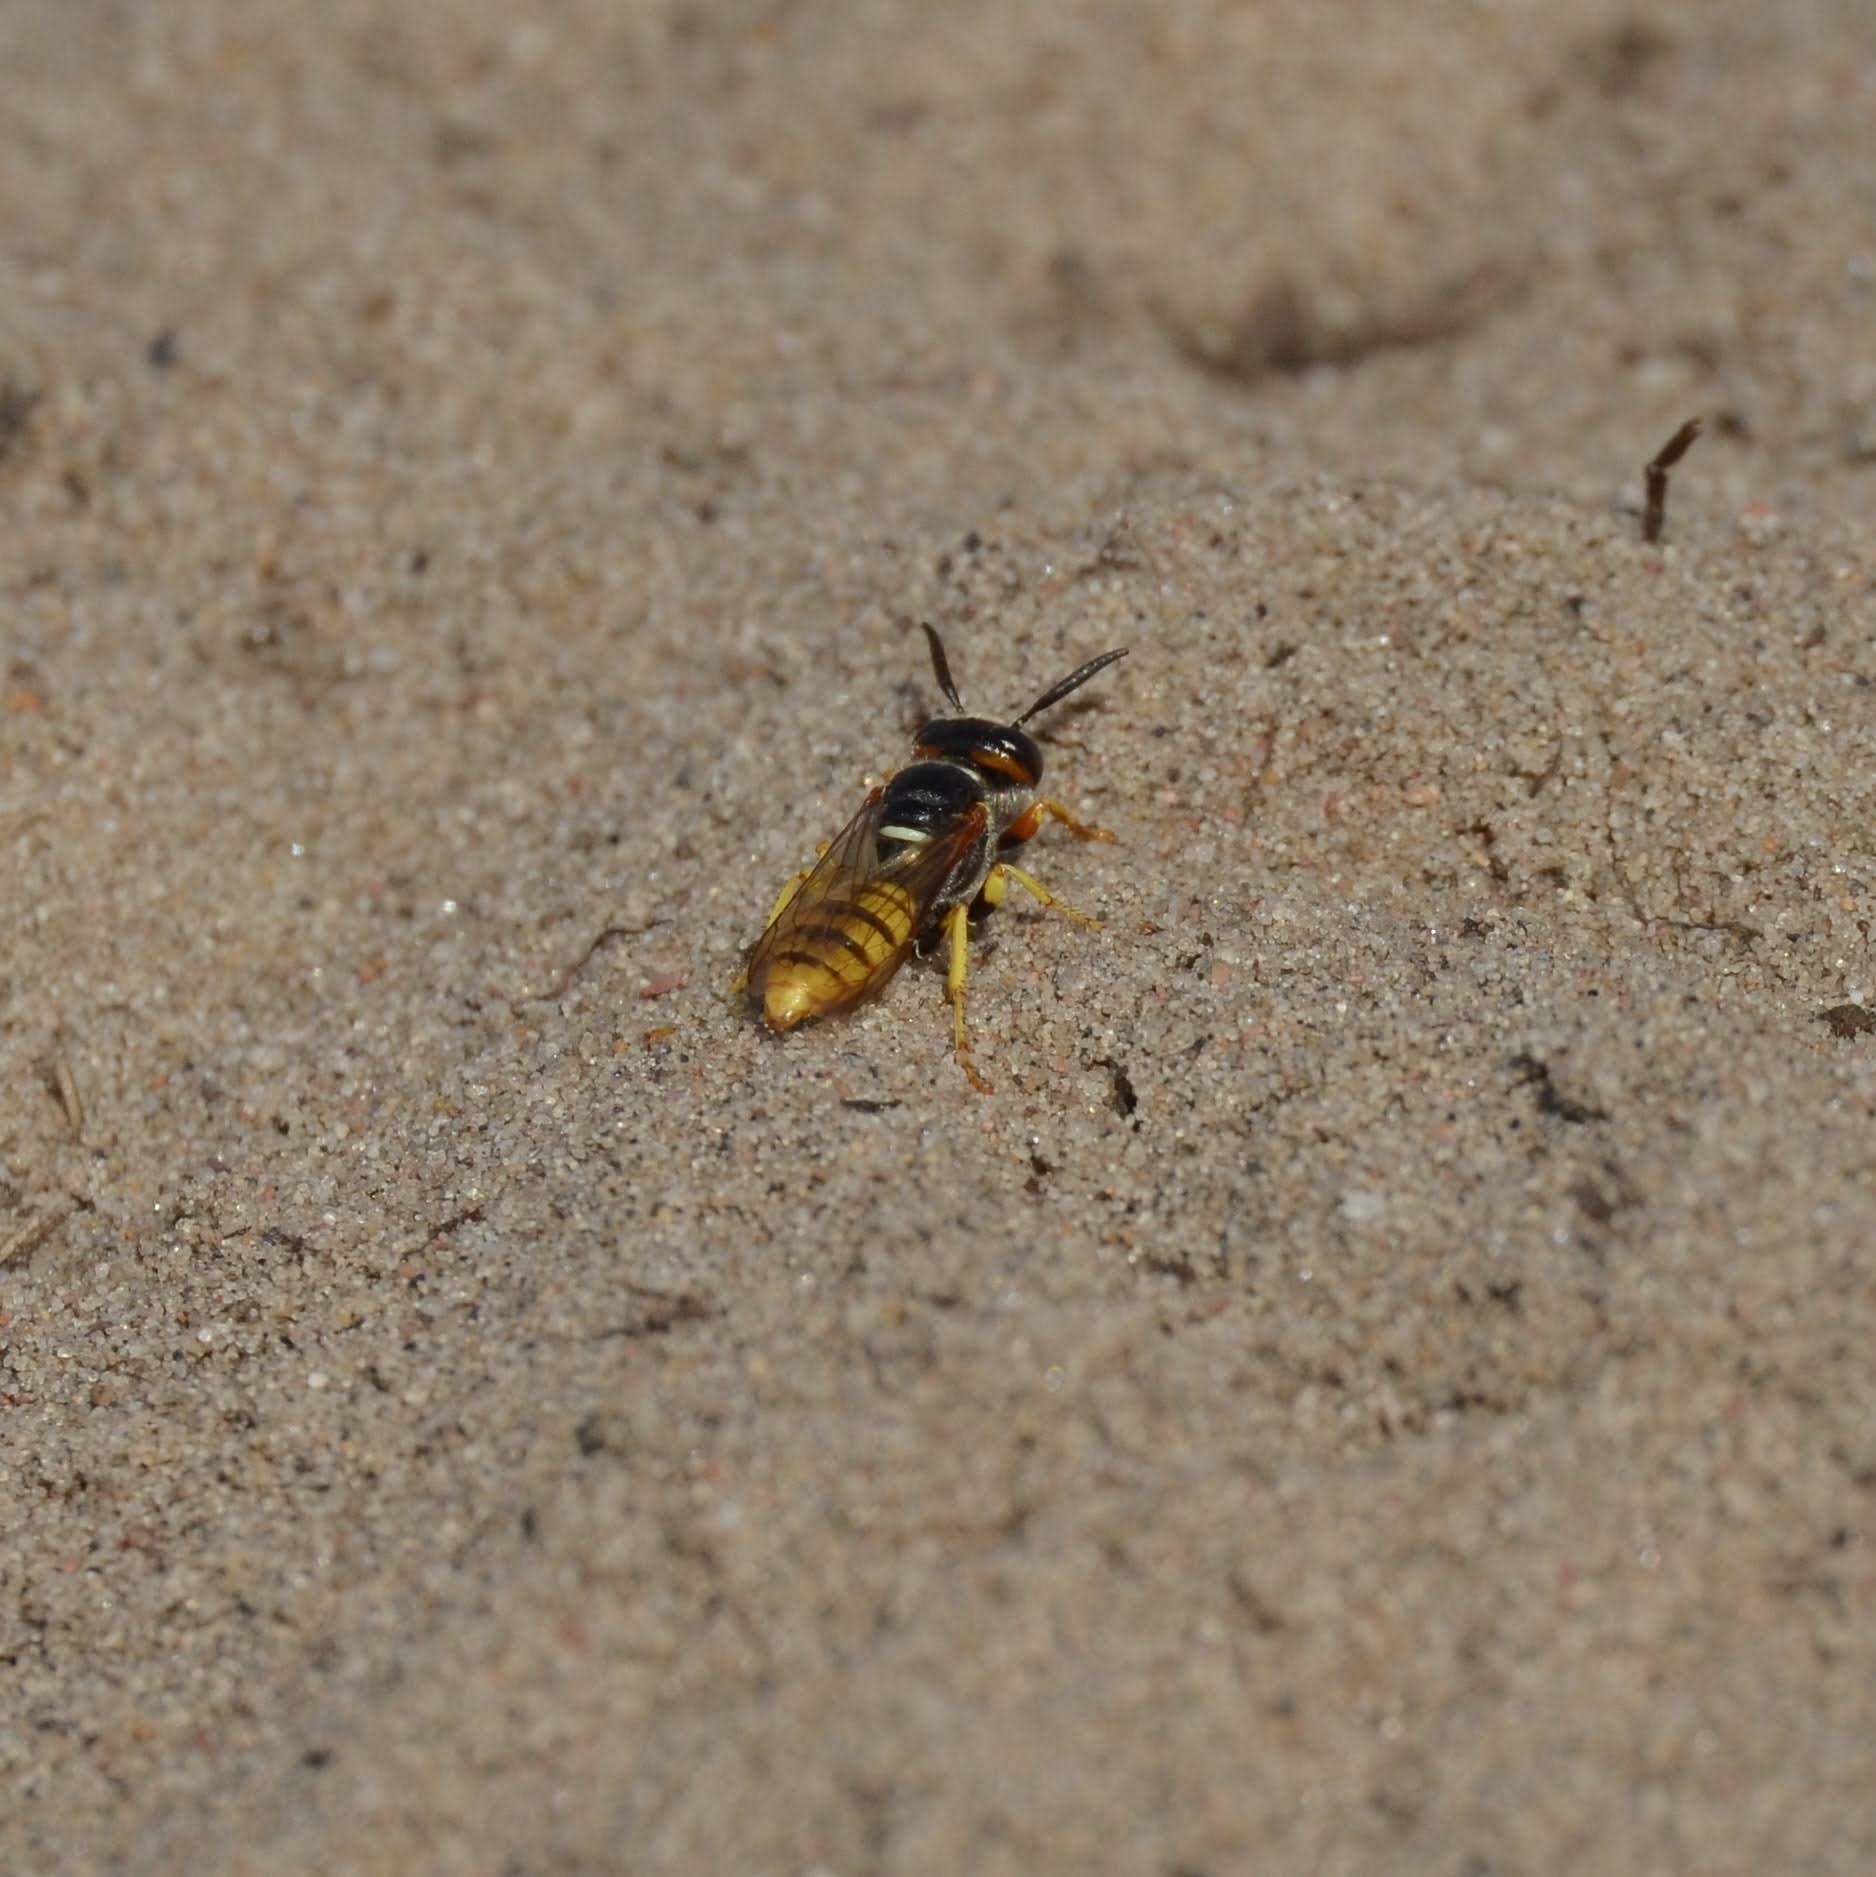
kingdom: Animalia
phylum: Arthropoda
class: Insecta
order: Hymenoptera
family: Crabronidae
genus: Philanthus
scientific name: Philanthus triangulum
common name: Bee wolf
